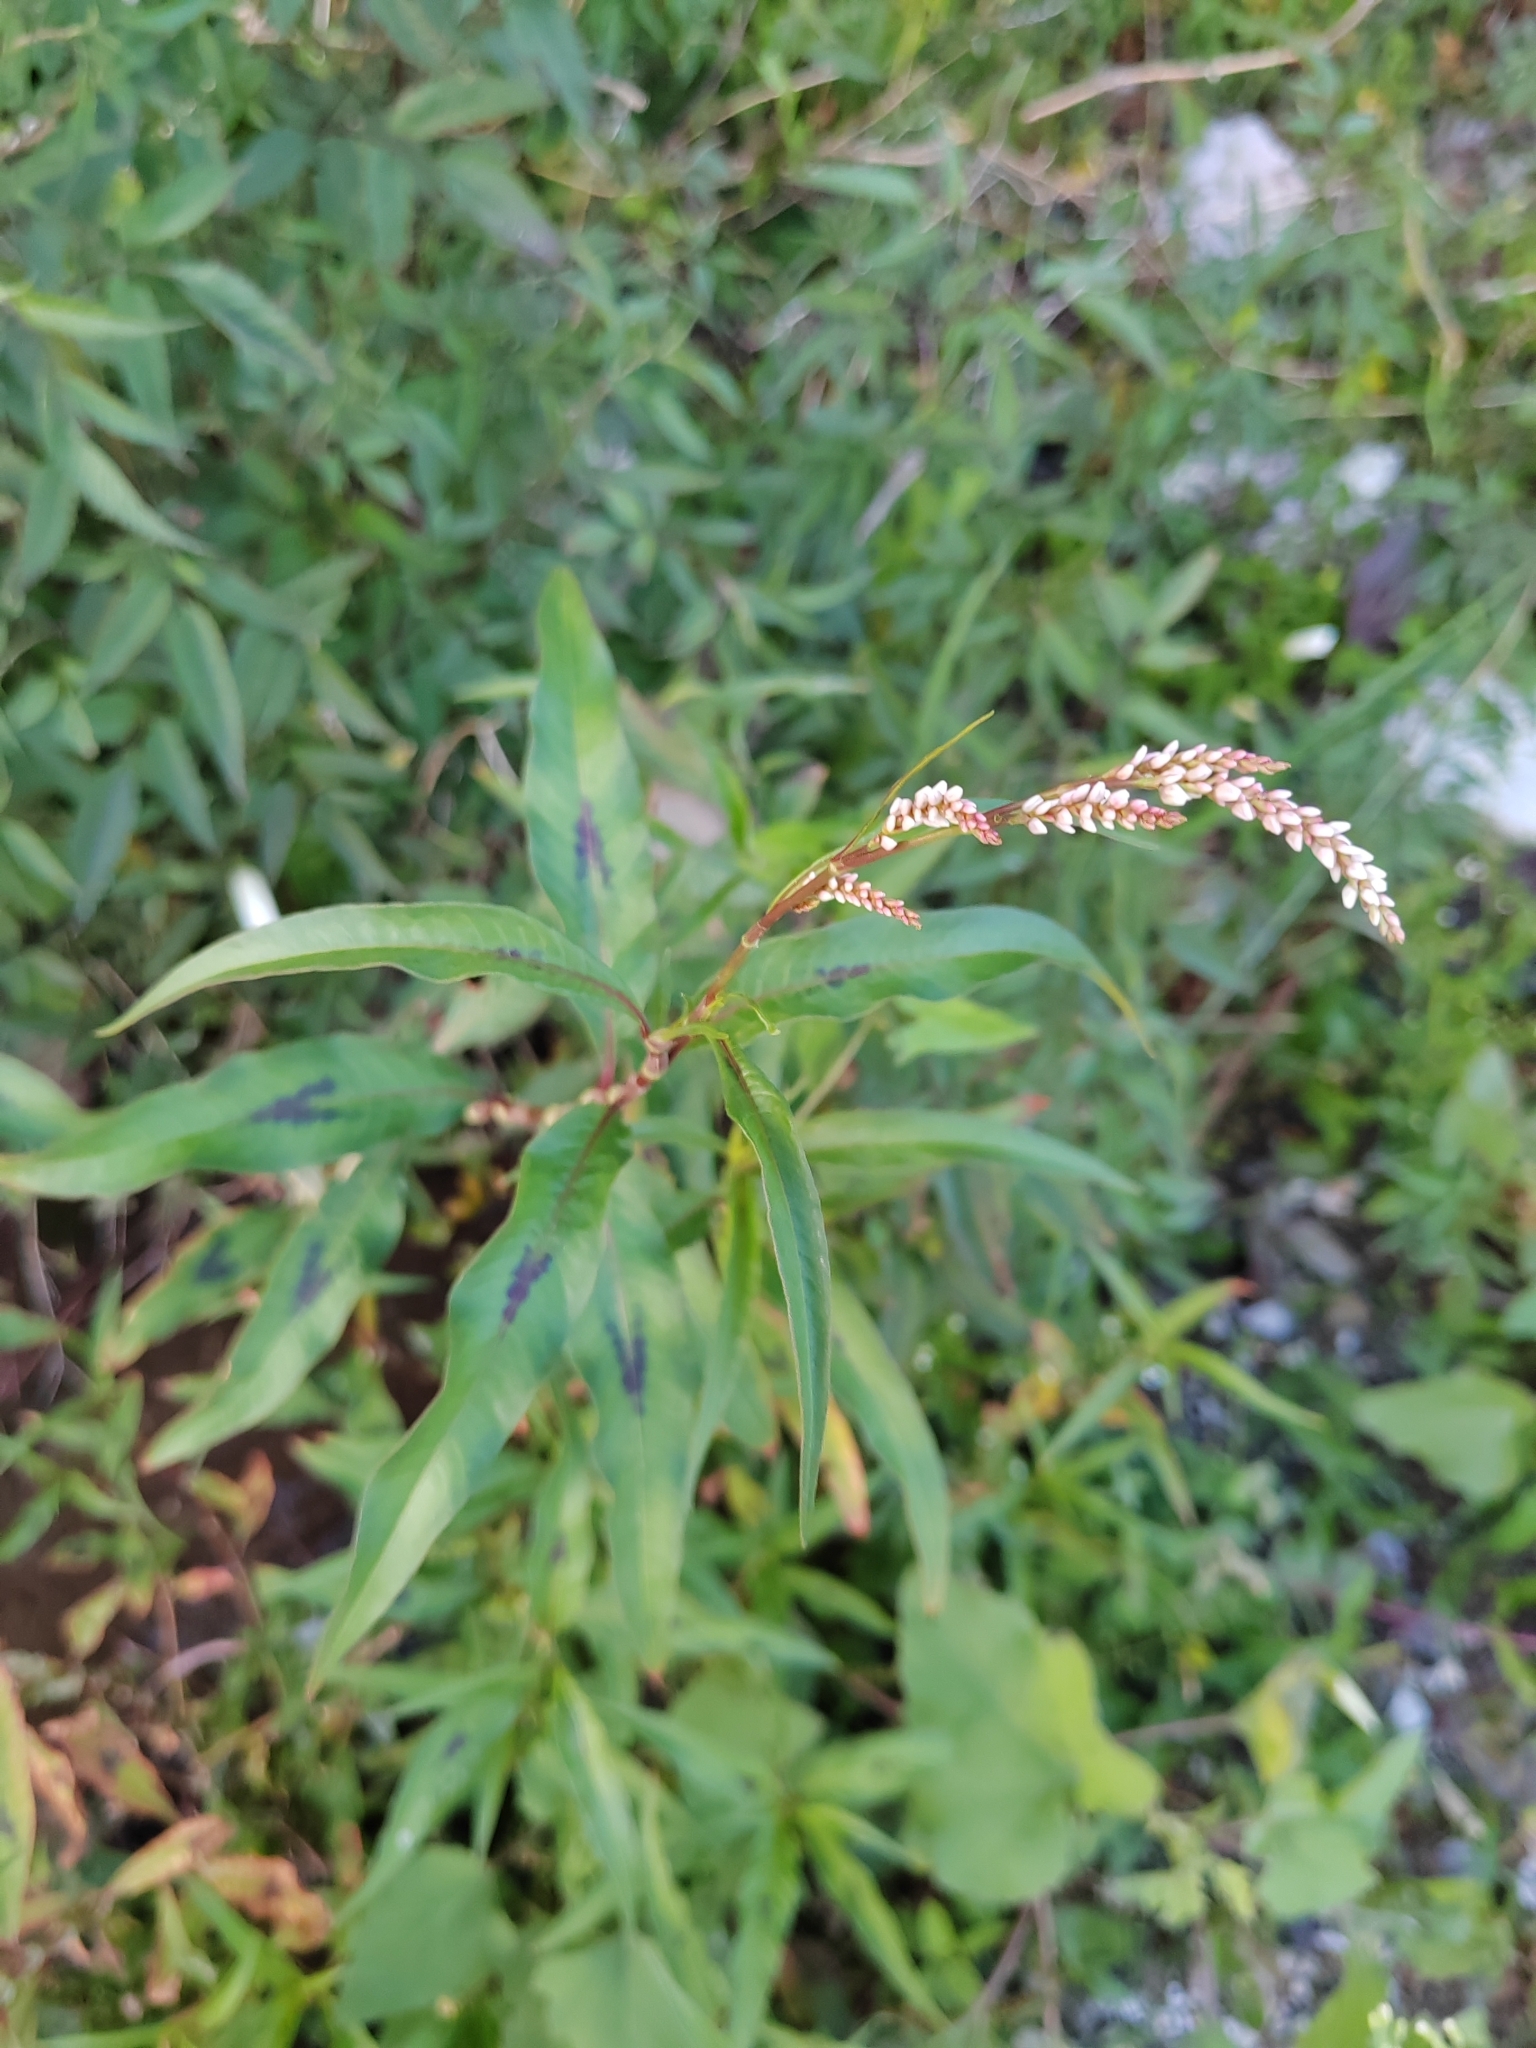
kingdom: Plantae
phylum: Tracheophyta
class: Magnoliopsida
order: Caryophyllales
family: Polygonaceae
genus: Persicaria
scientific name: Persicaria lapathifolia
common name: Curlytop knotweed
